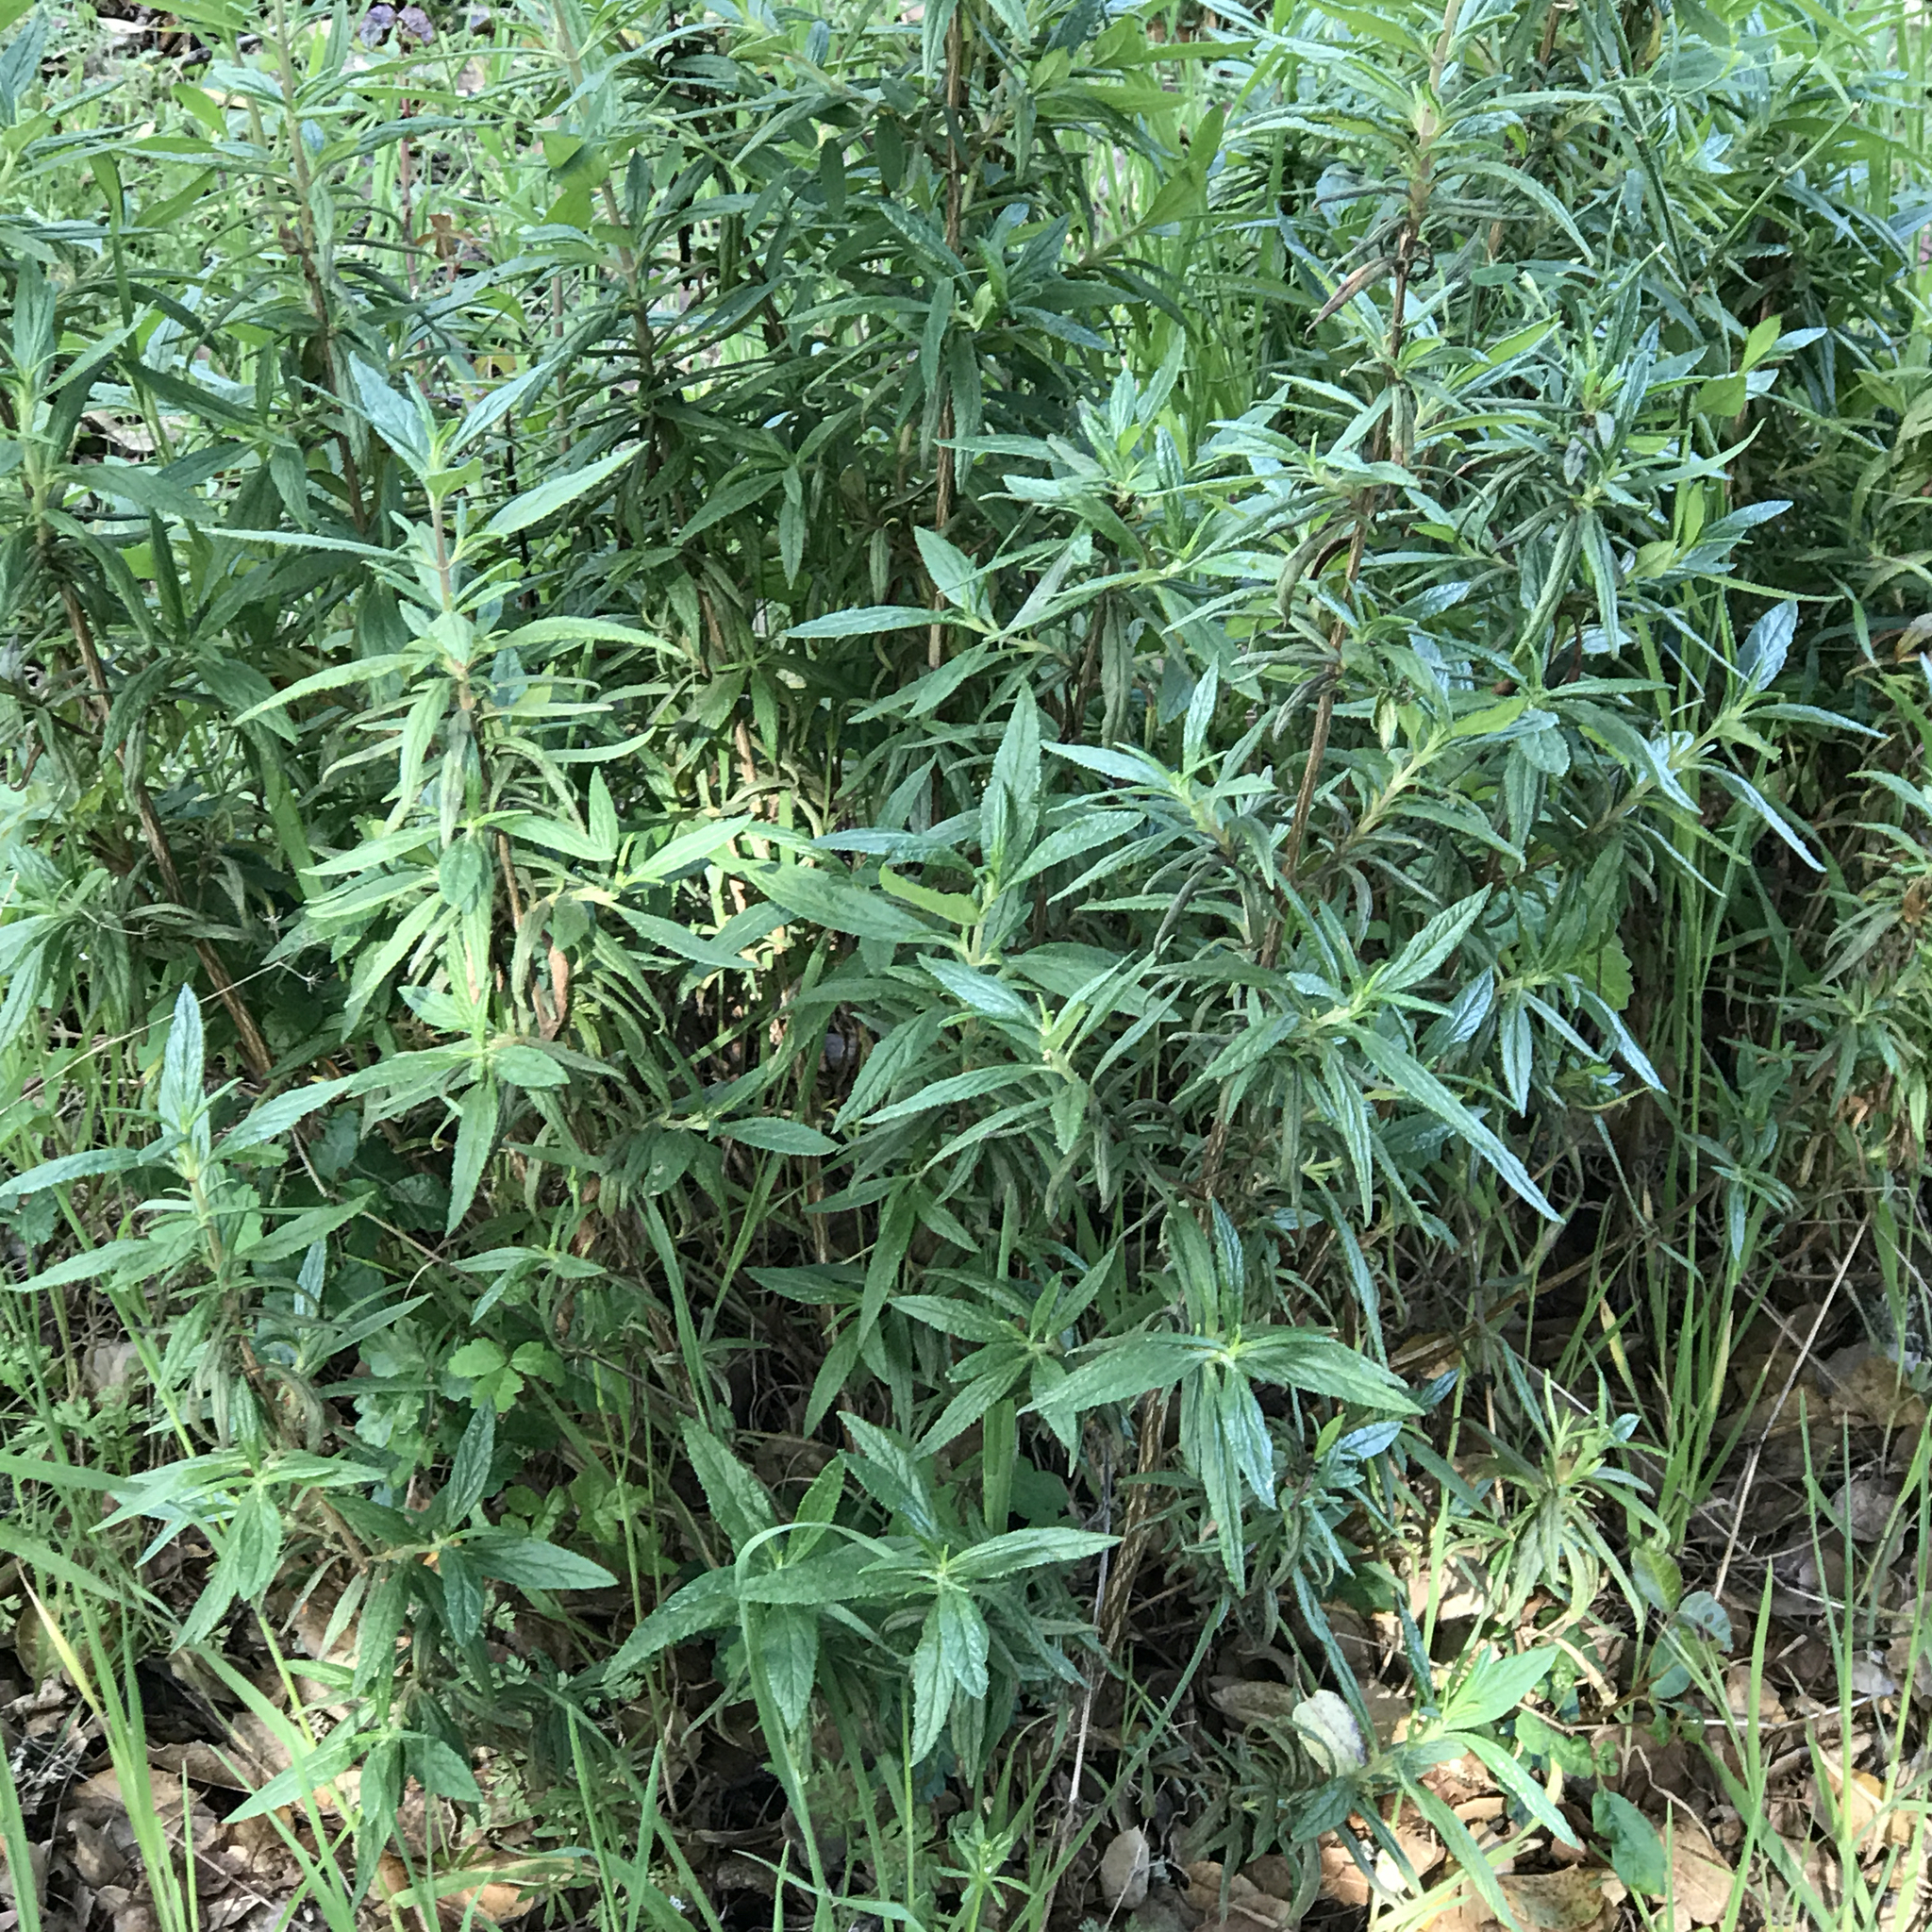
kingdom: Plantae
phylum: Tracheophyta
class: Magnoliopsida
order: Lamiales
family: Phrymaceae
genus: Diplacus
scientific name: Diplacus aurantiacus
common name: Bush monkey-flower
